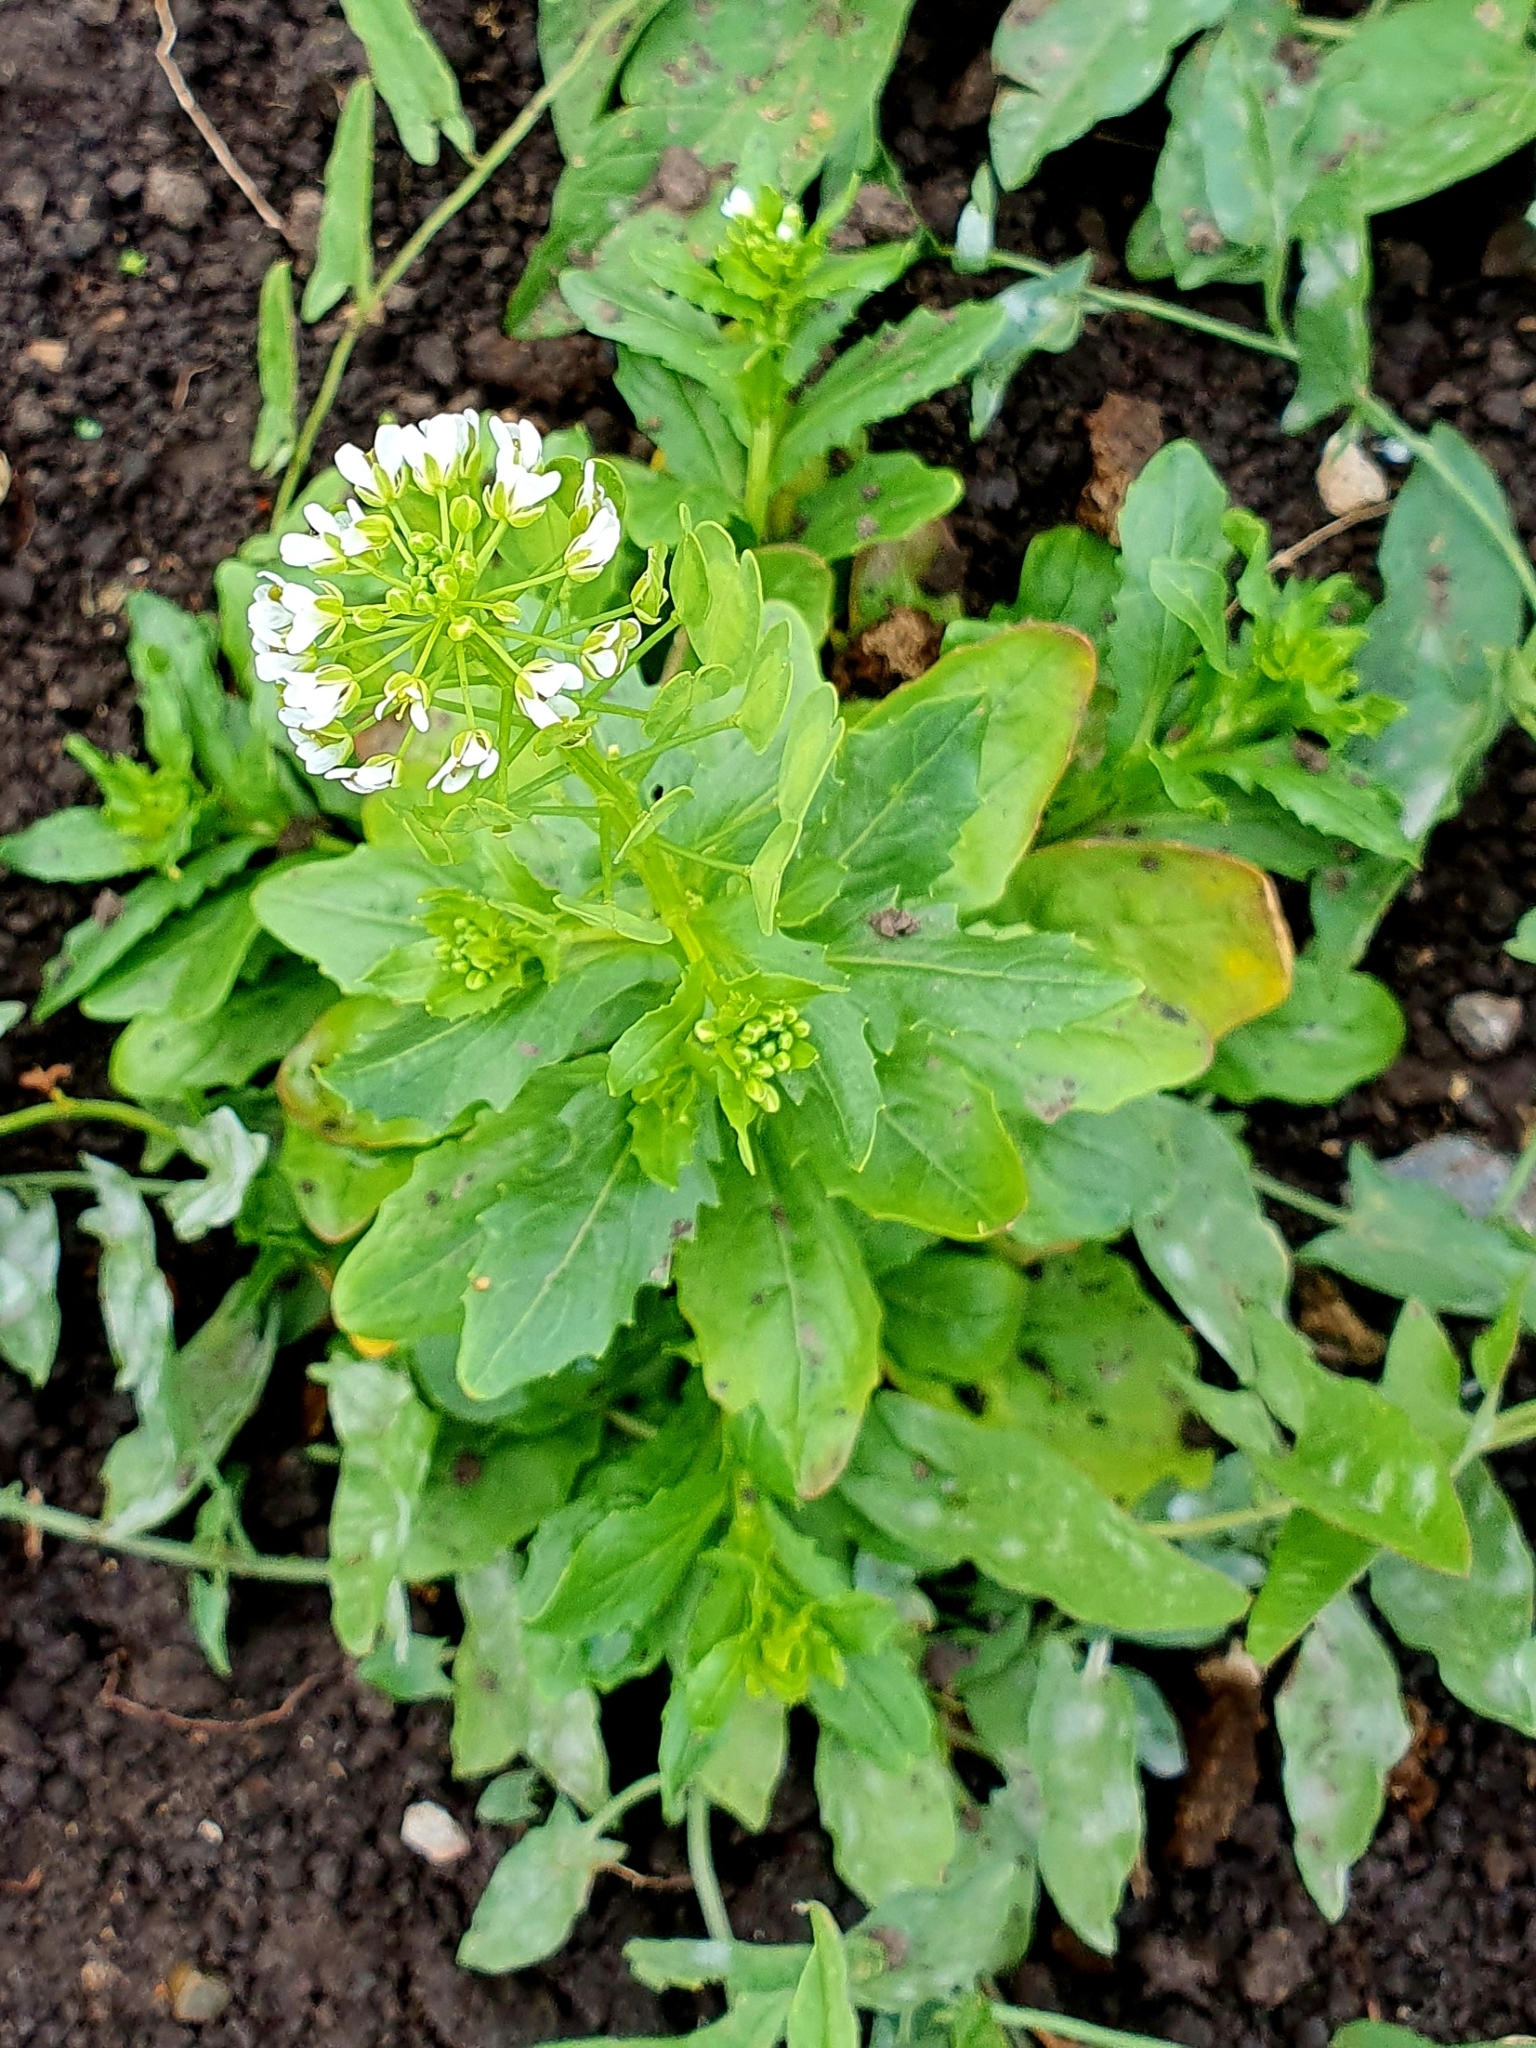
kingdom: Plantae
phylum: Tracheophyta
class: Magnoliopsida
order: Brassicales
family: Brassicaceae
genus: Thlaspi
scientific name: Thlaspi arvense
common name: Field pennycress
